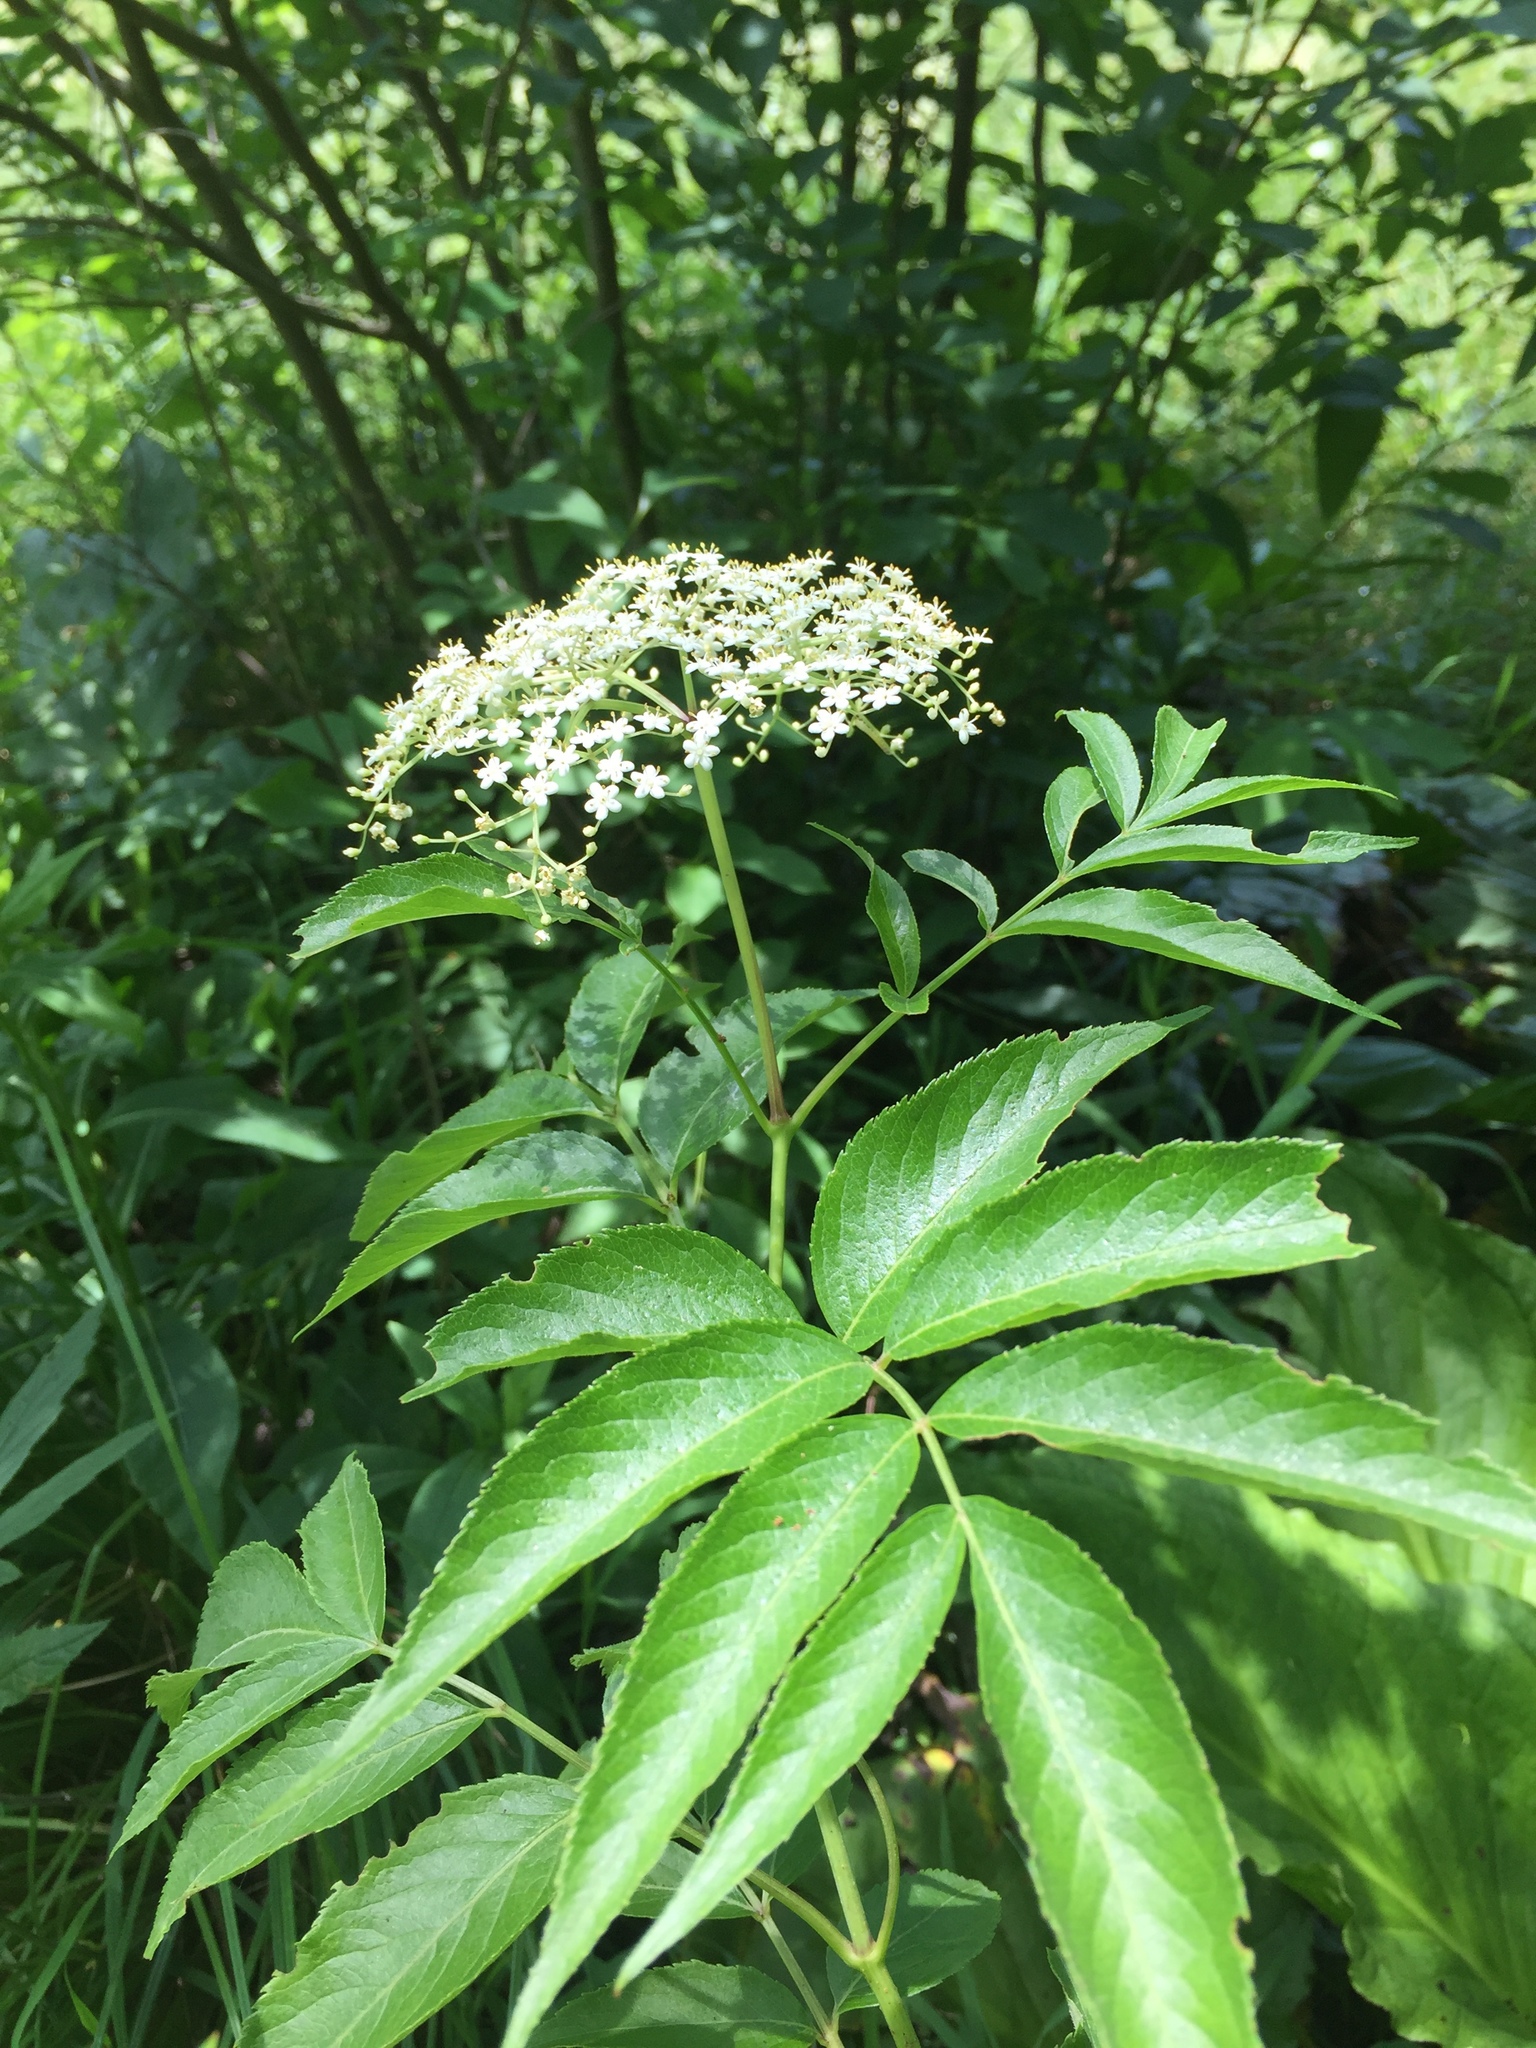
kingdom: Plantae
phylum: Tracheophyta
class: Magnoliopsida
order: Dipsacales
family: Viburnaceae
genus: Sambucus
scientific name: Sambucus canadensis
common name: American elder
